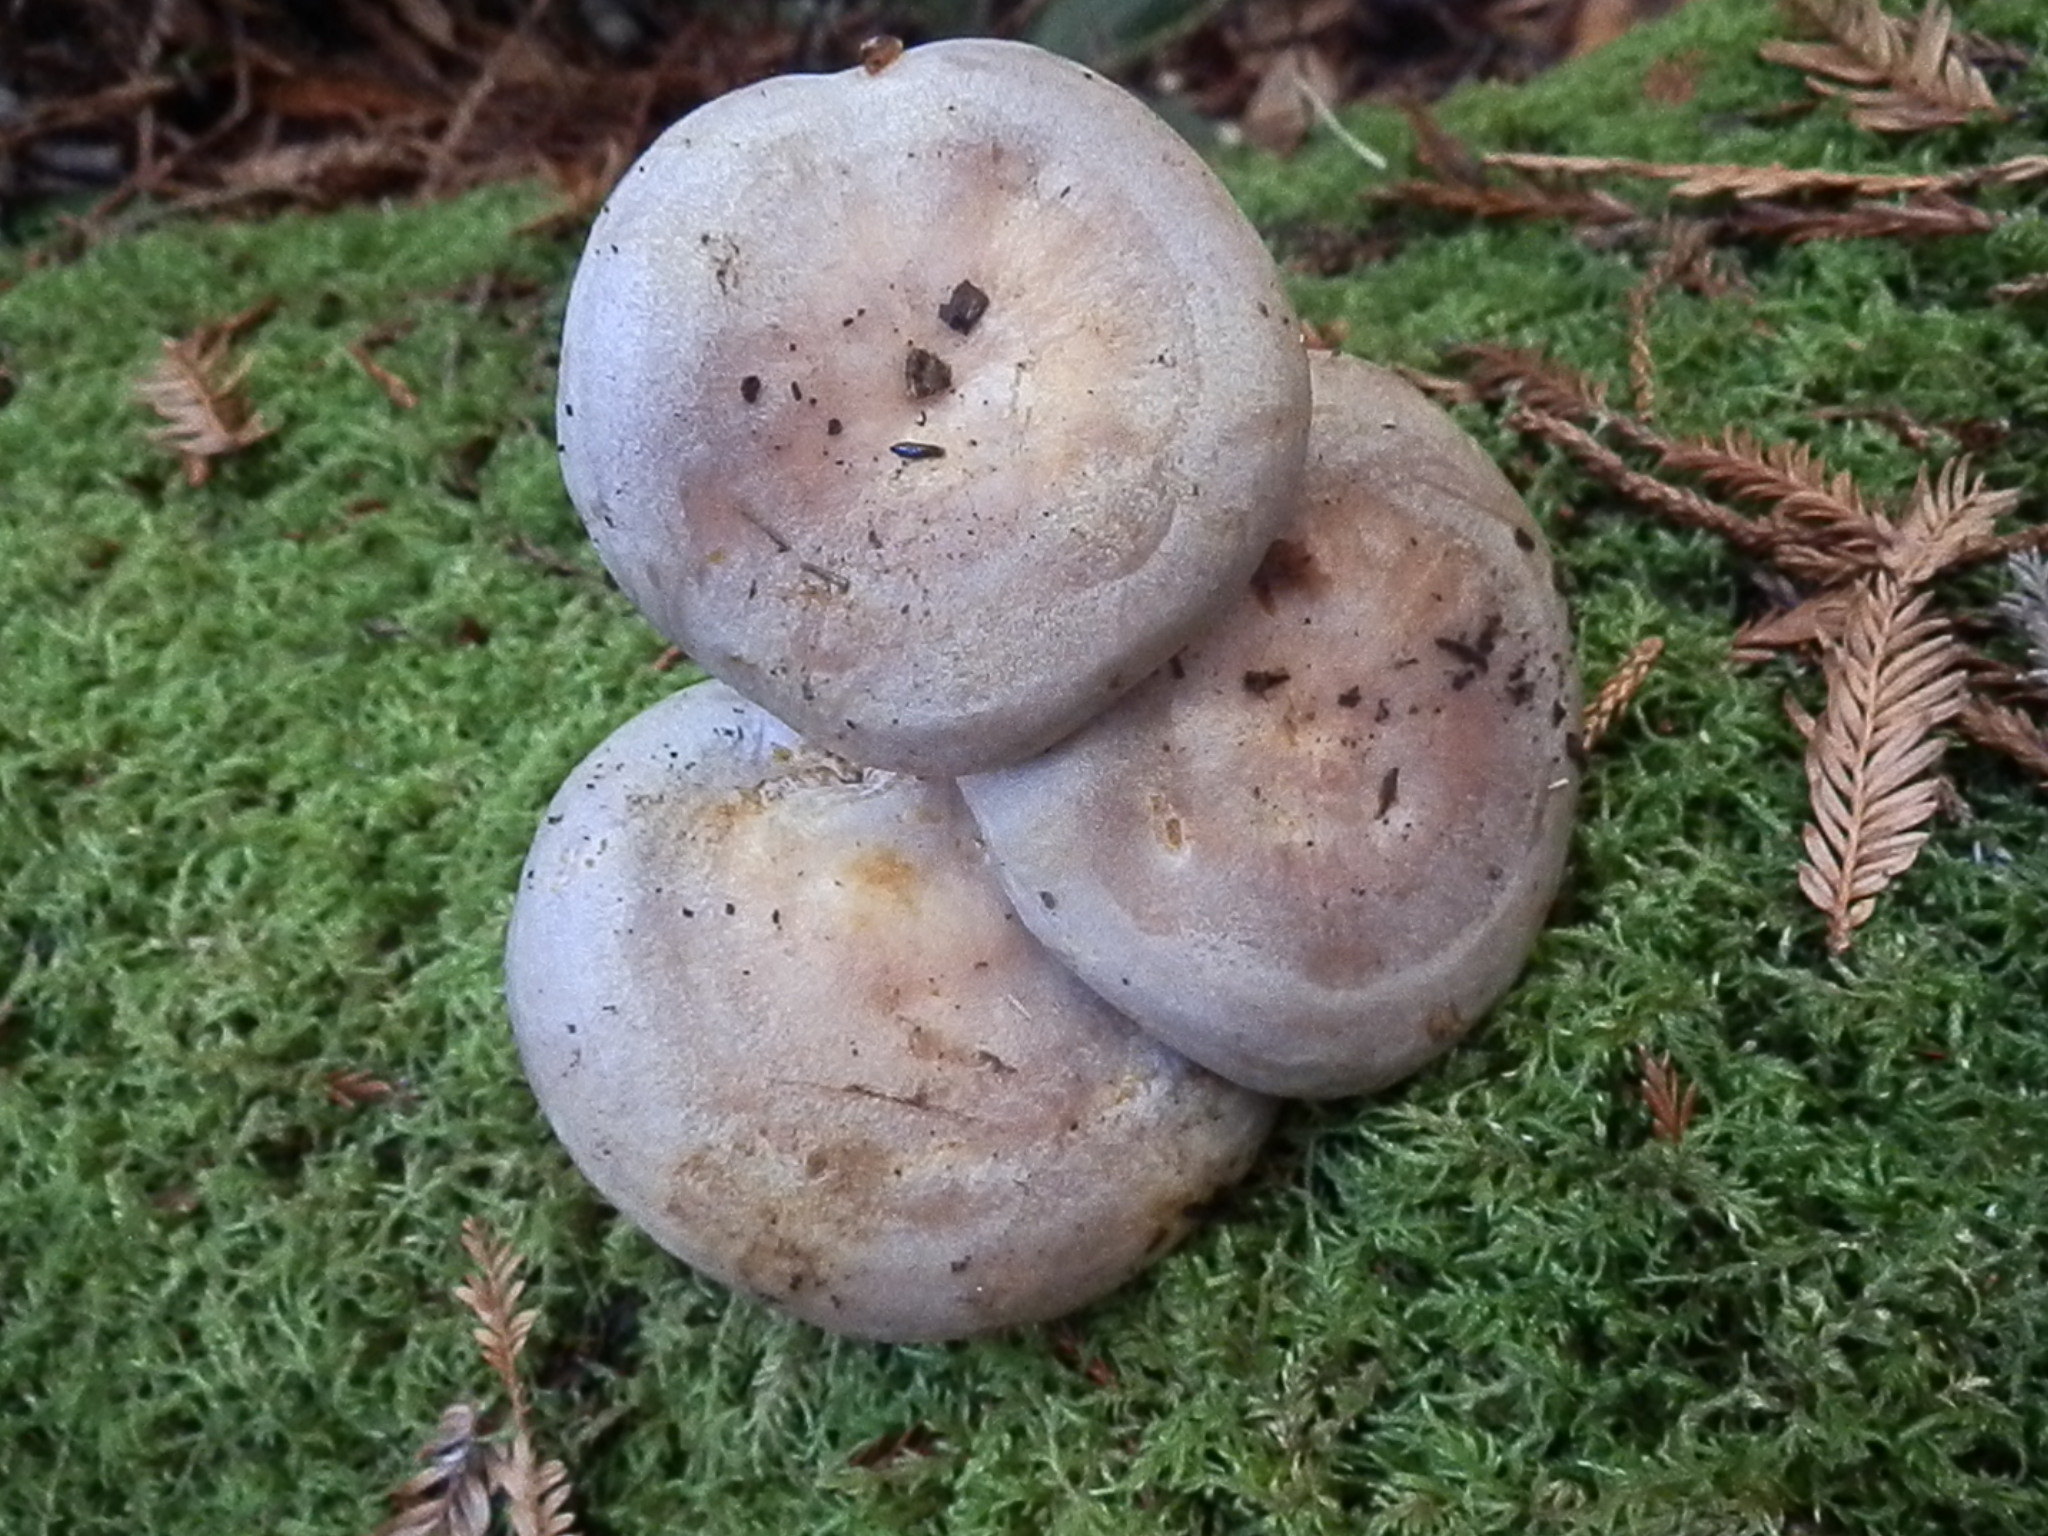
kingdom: Fungi
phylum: Basidiomycota
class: Agaricomycetes
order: Russulales
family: Russulaceae
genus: Lactarius
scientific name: Lactarius argillaceifolius
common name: Clay-gilled milkcap
